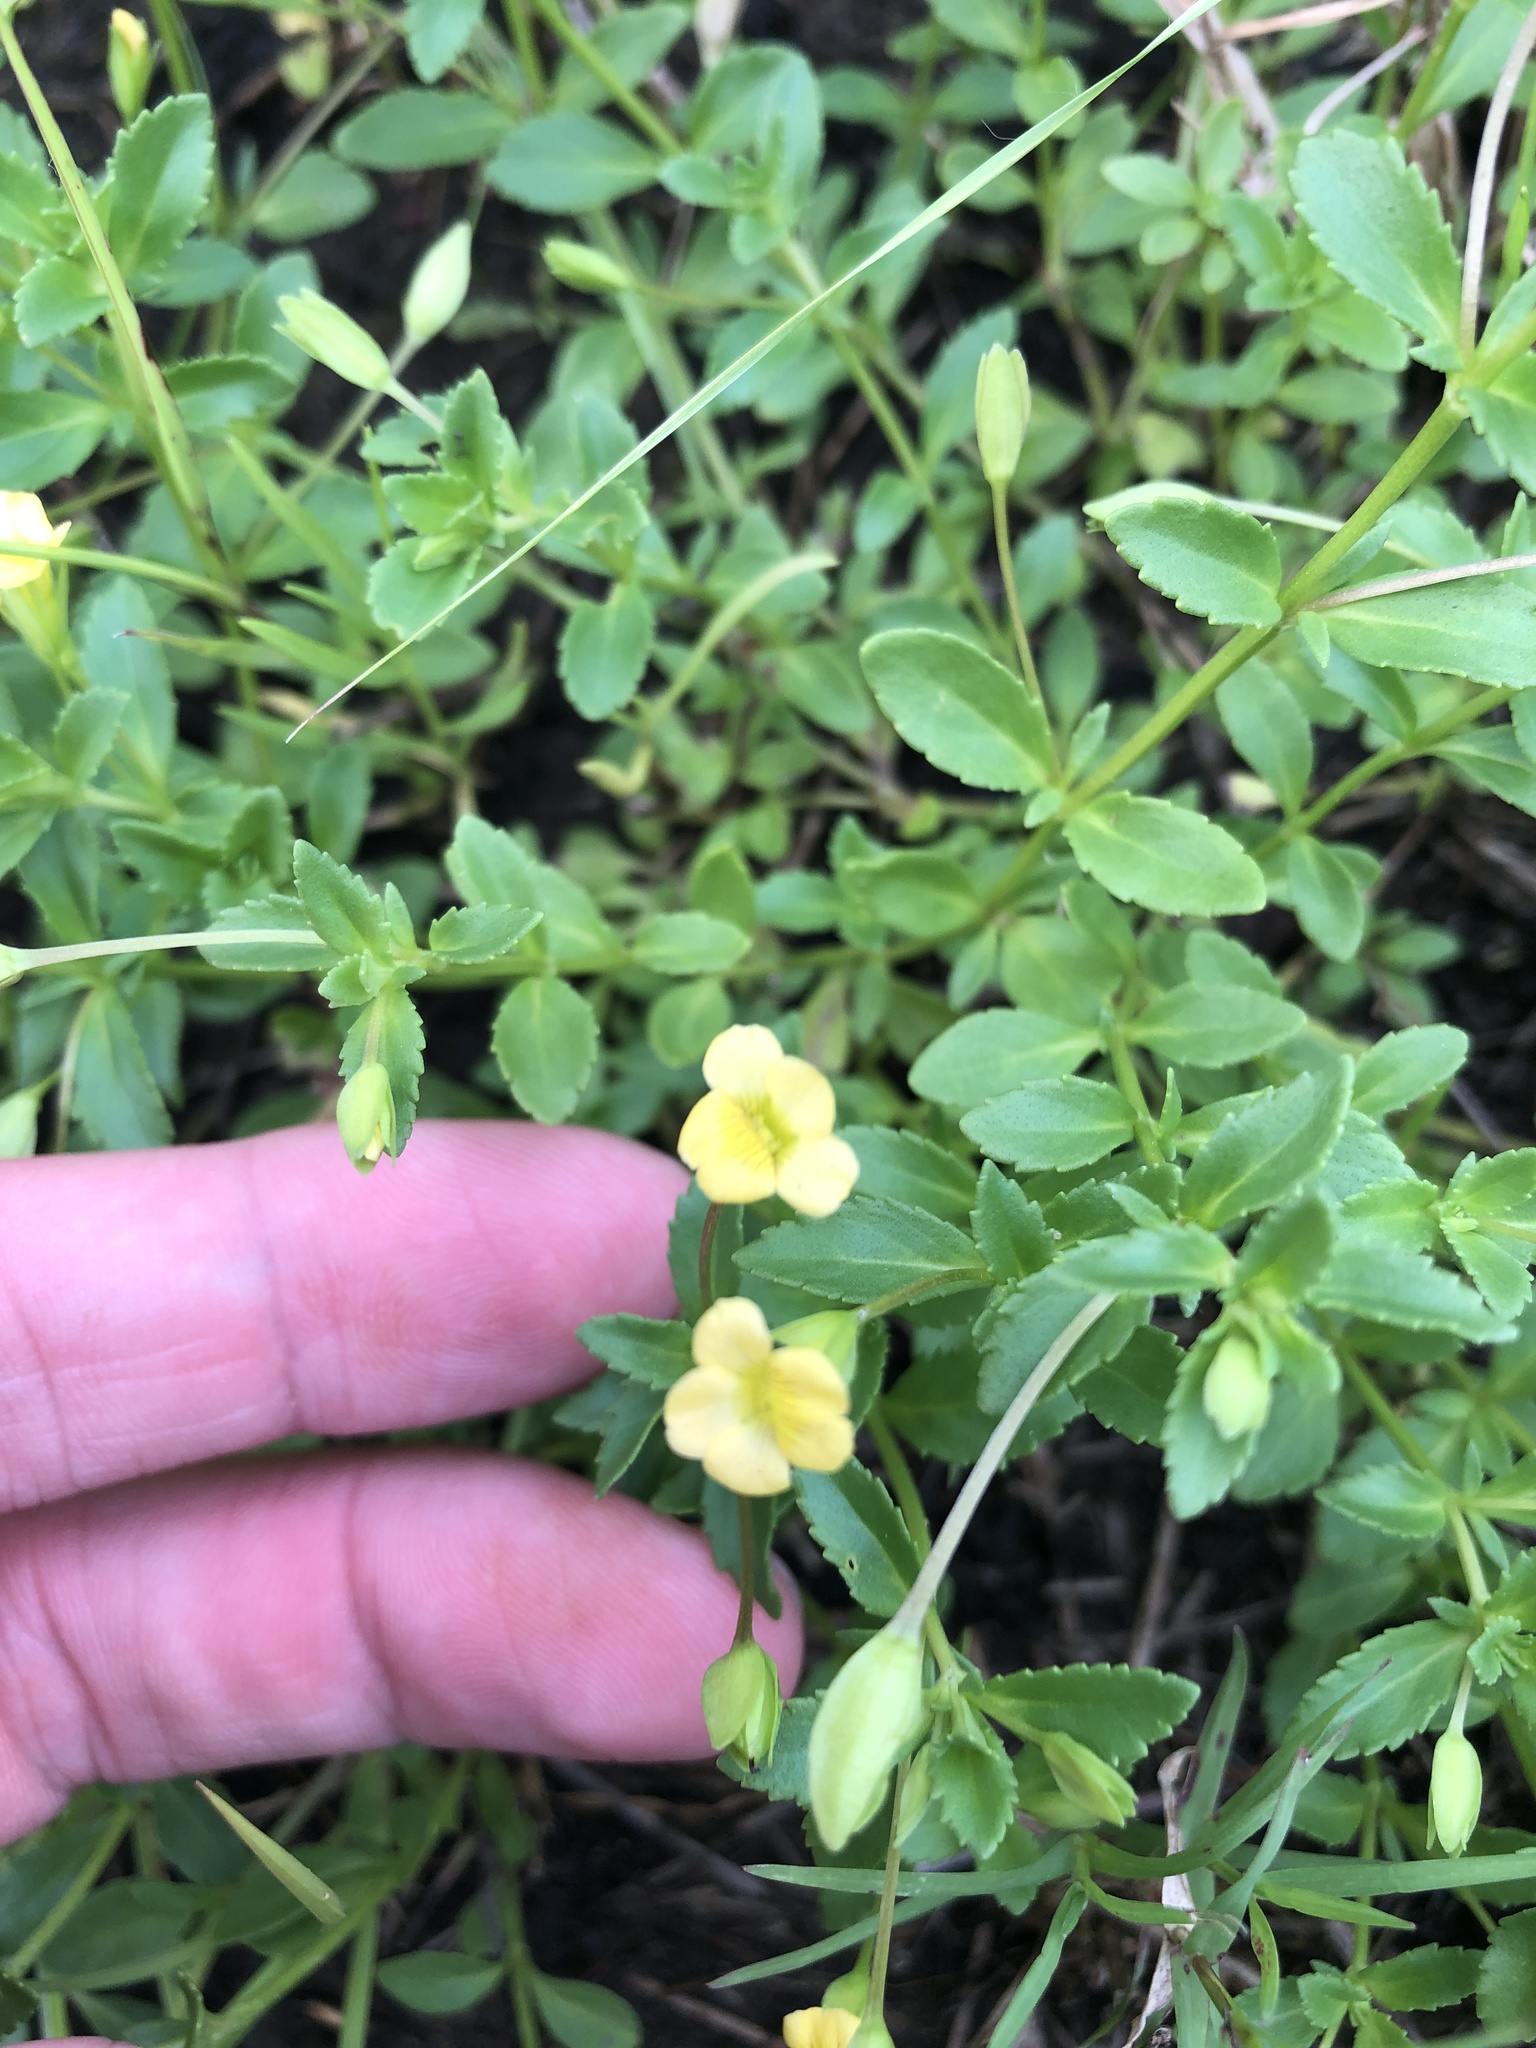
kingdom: Plantae
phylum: Tracheophyta
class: Magnoliopsida
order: Lamiales
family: Plantaginaceae
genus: Mecardonia
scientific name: Mecardonia procumbens
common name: Baby jump-up
